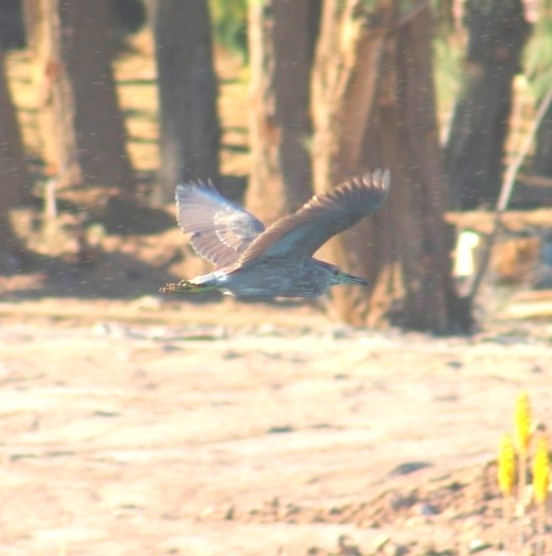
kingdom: Animalia
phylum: Chordata
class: Aves
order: Pelecaniformes
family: Ardeidae
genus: Nycticorax
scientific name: Nycticorax nycticorax
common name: Black-crowned night heron
